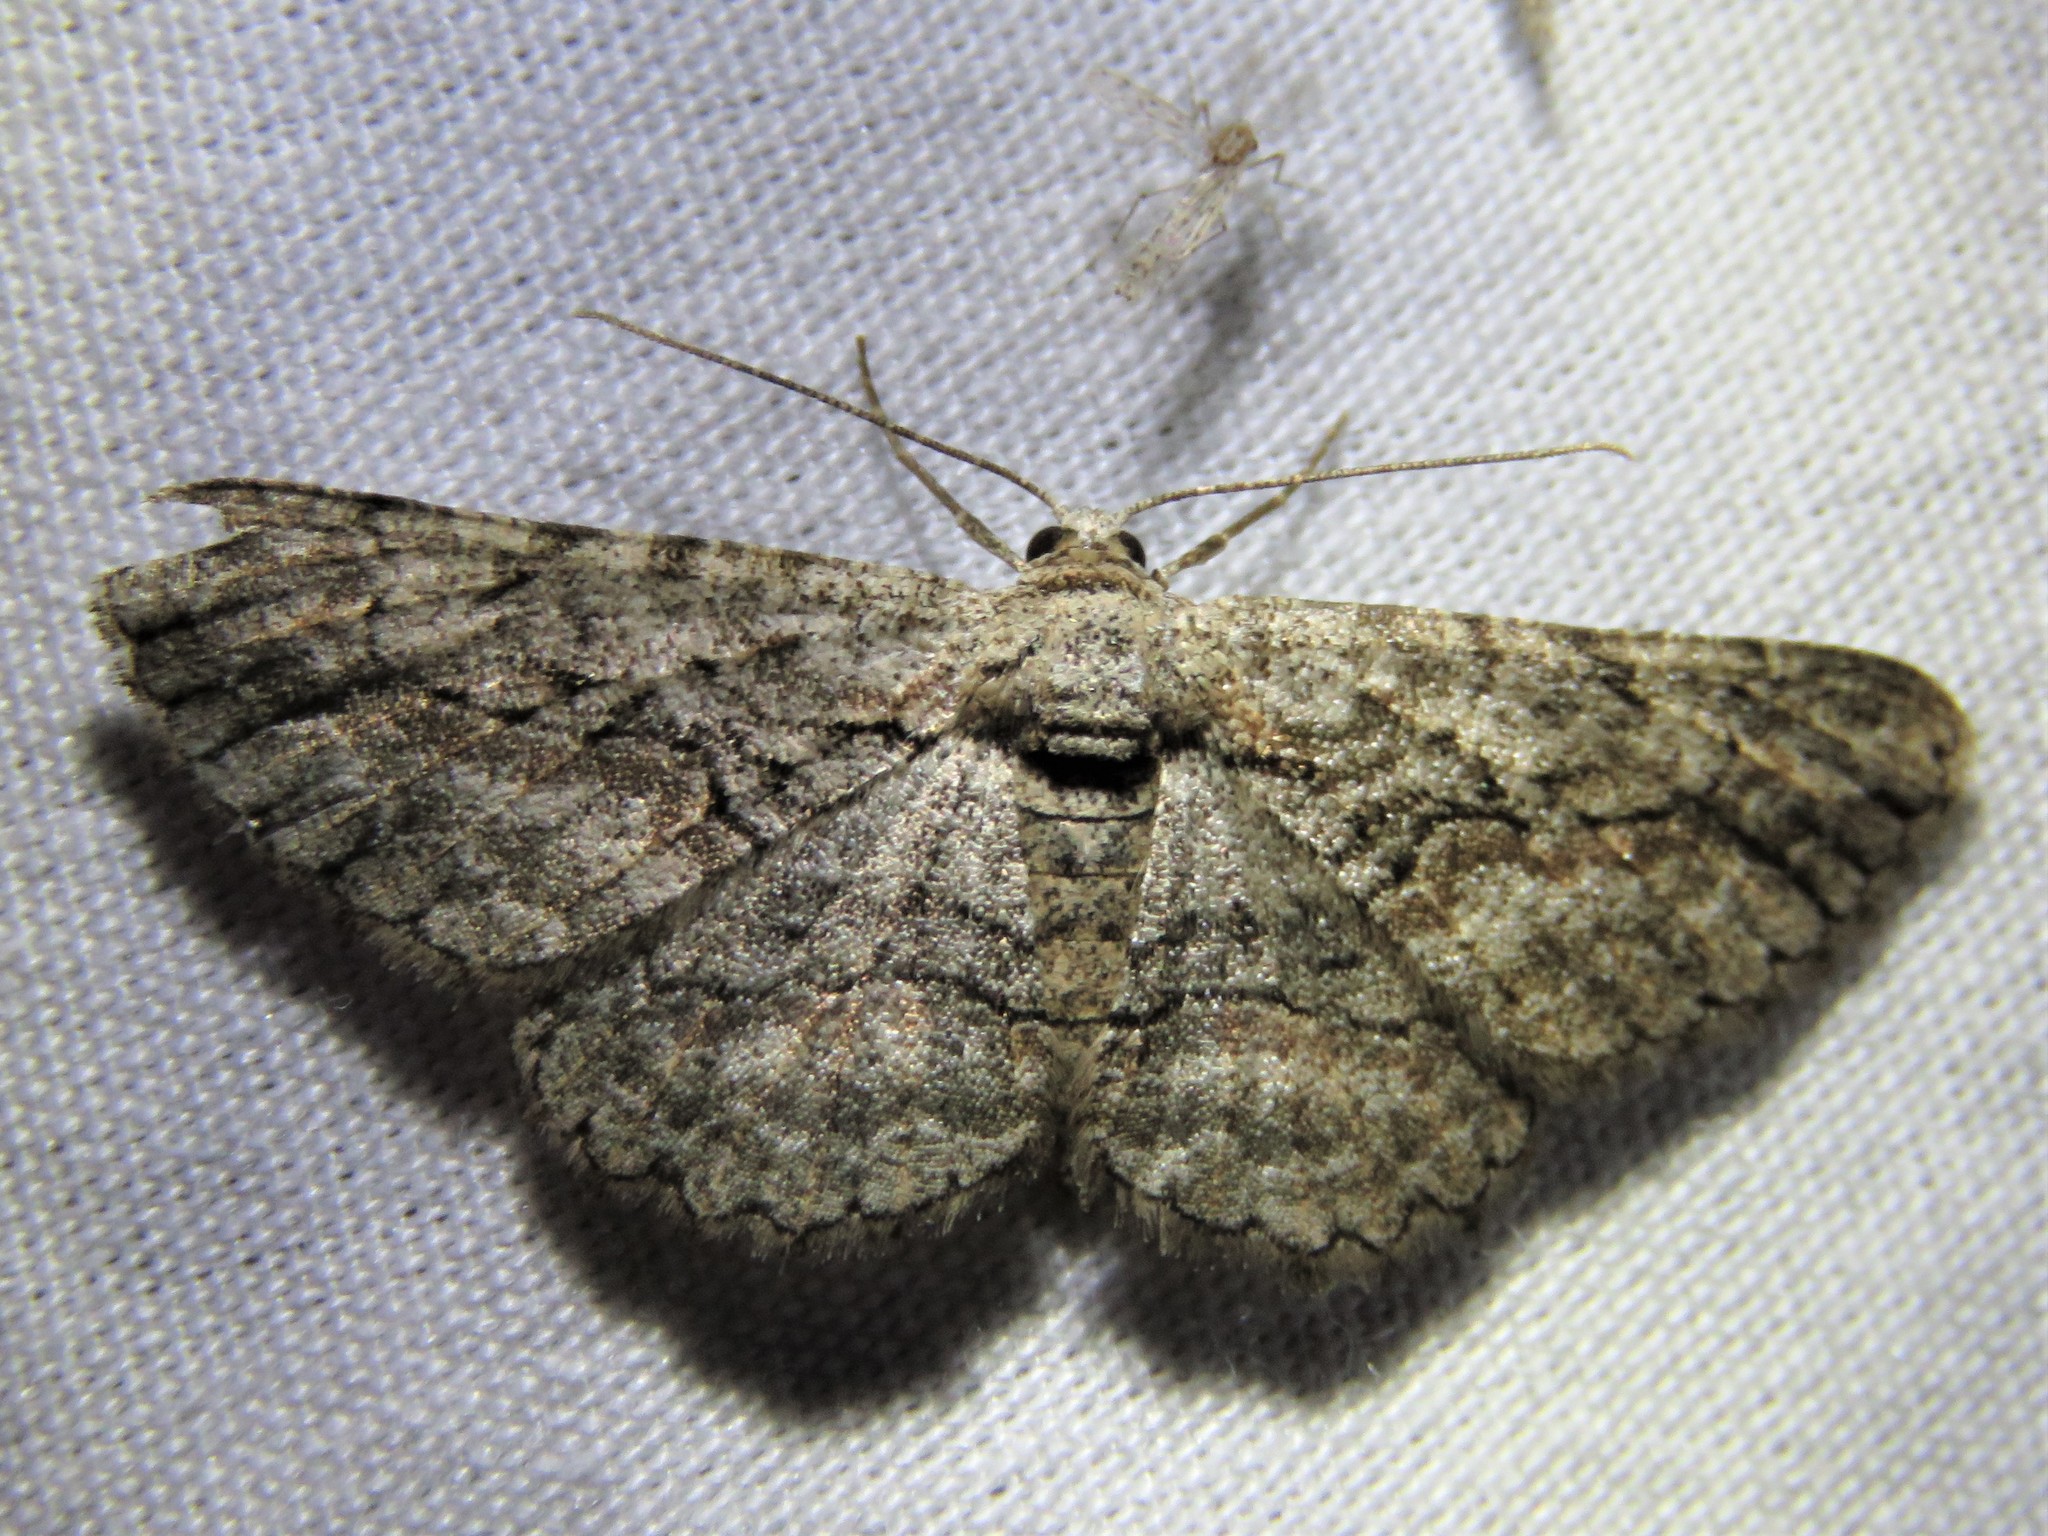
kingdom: Animalia
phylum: Arthropoda
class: Insecta
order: Lepidoptera
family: Geometridae
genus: Anavitrinella
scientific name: Anavitrinella pampinaria
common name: Common gray
